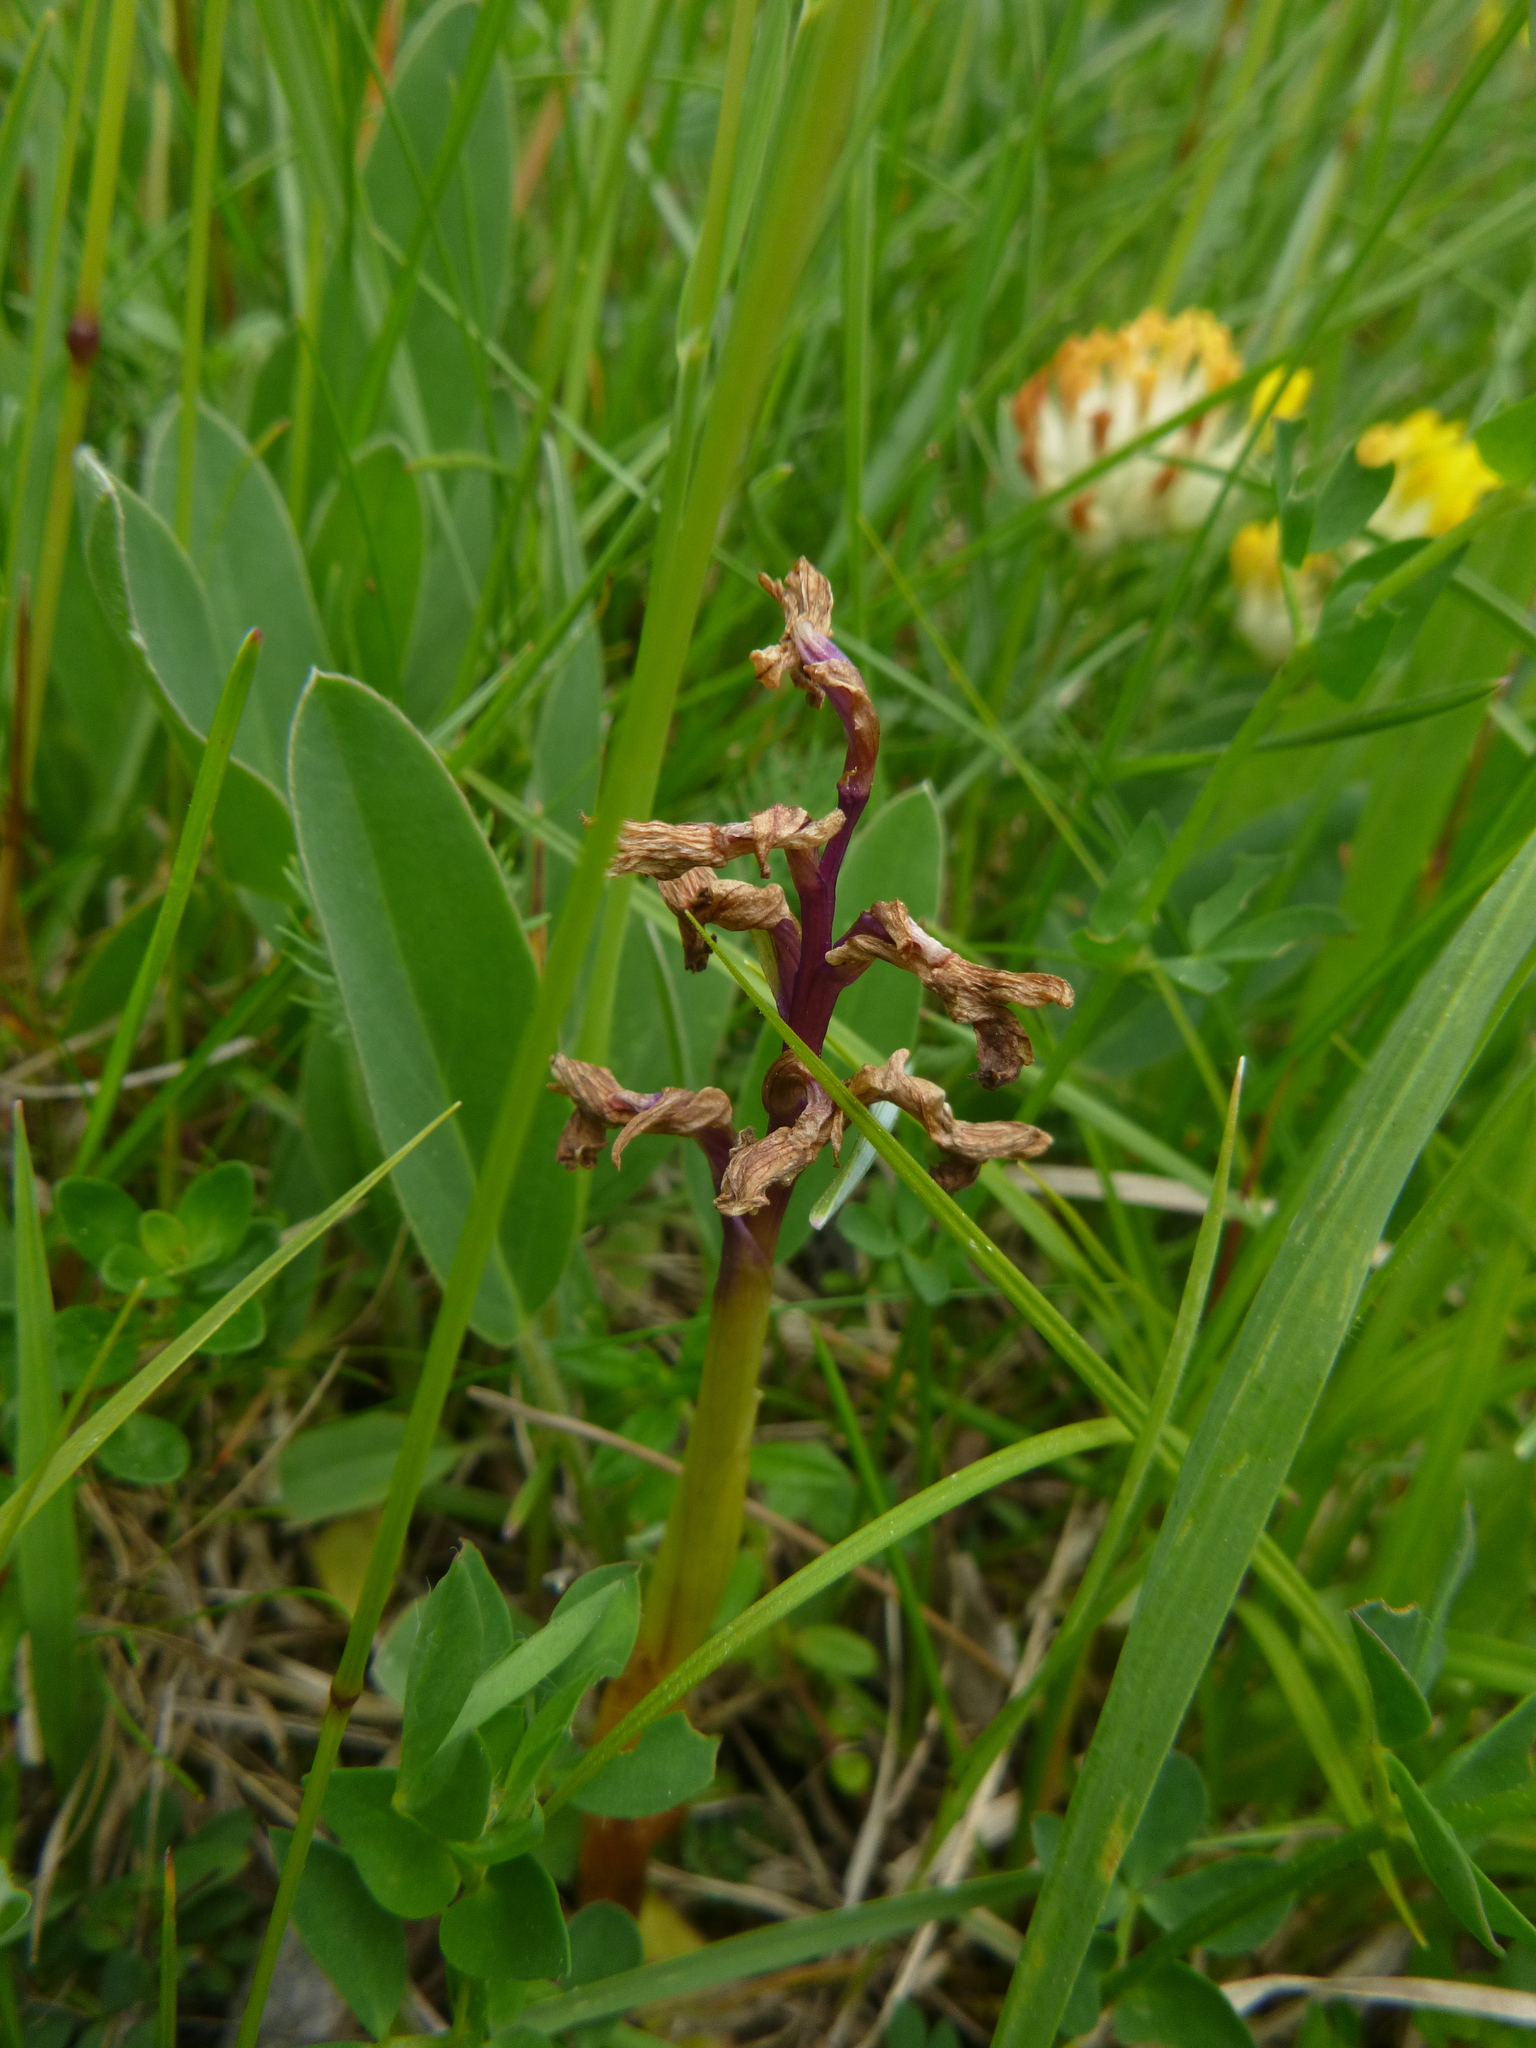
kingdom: Plantae
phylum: Tracheophyta
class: Liliopsida
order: Asparagales
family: Orchidaceae
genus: Anacamptis
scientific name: Anacamptis morio
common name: Green-winged orchid
